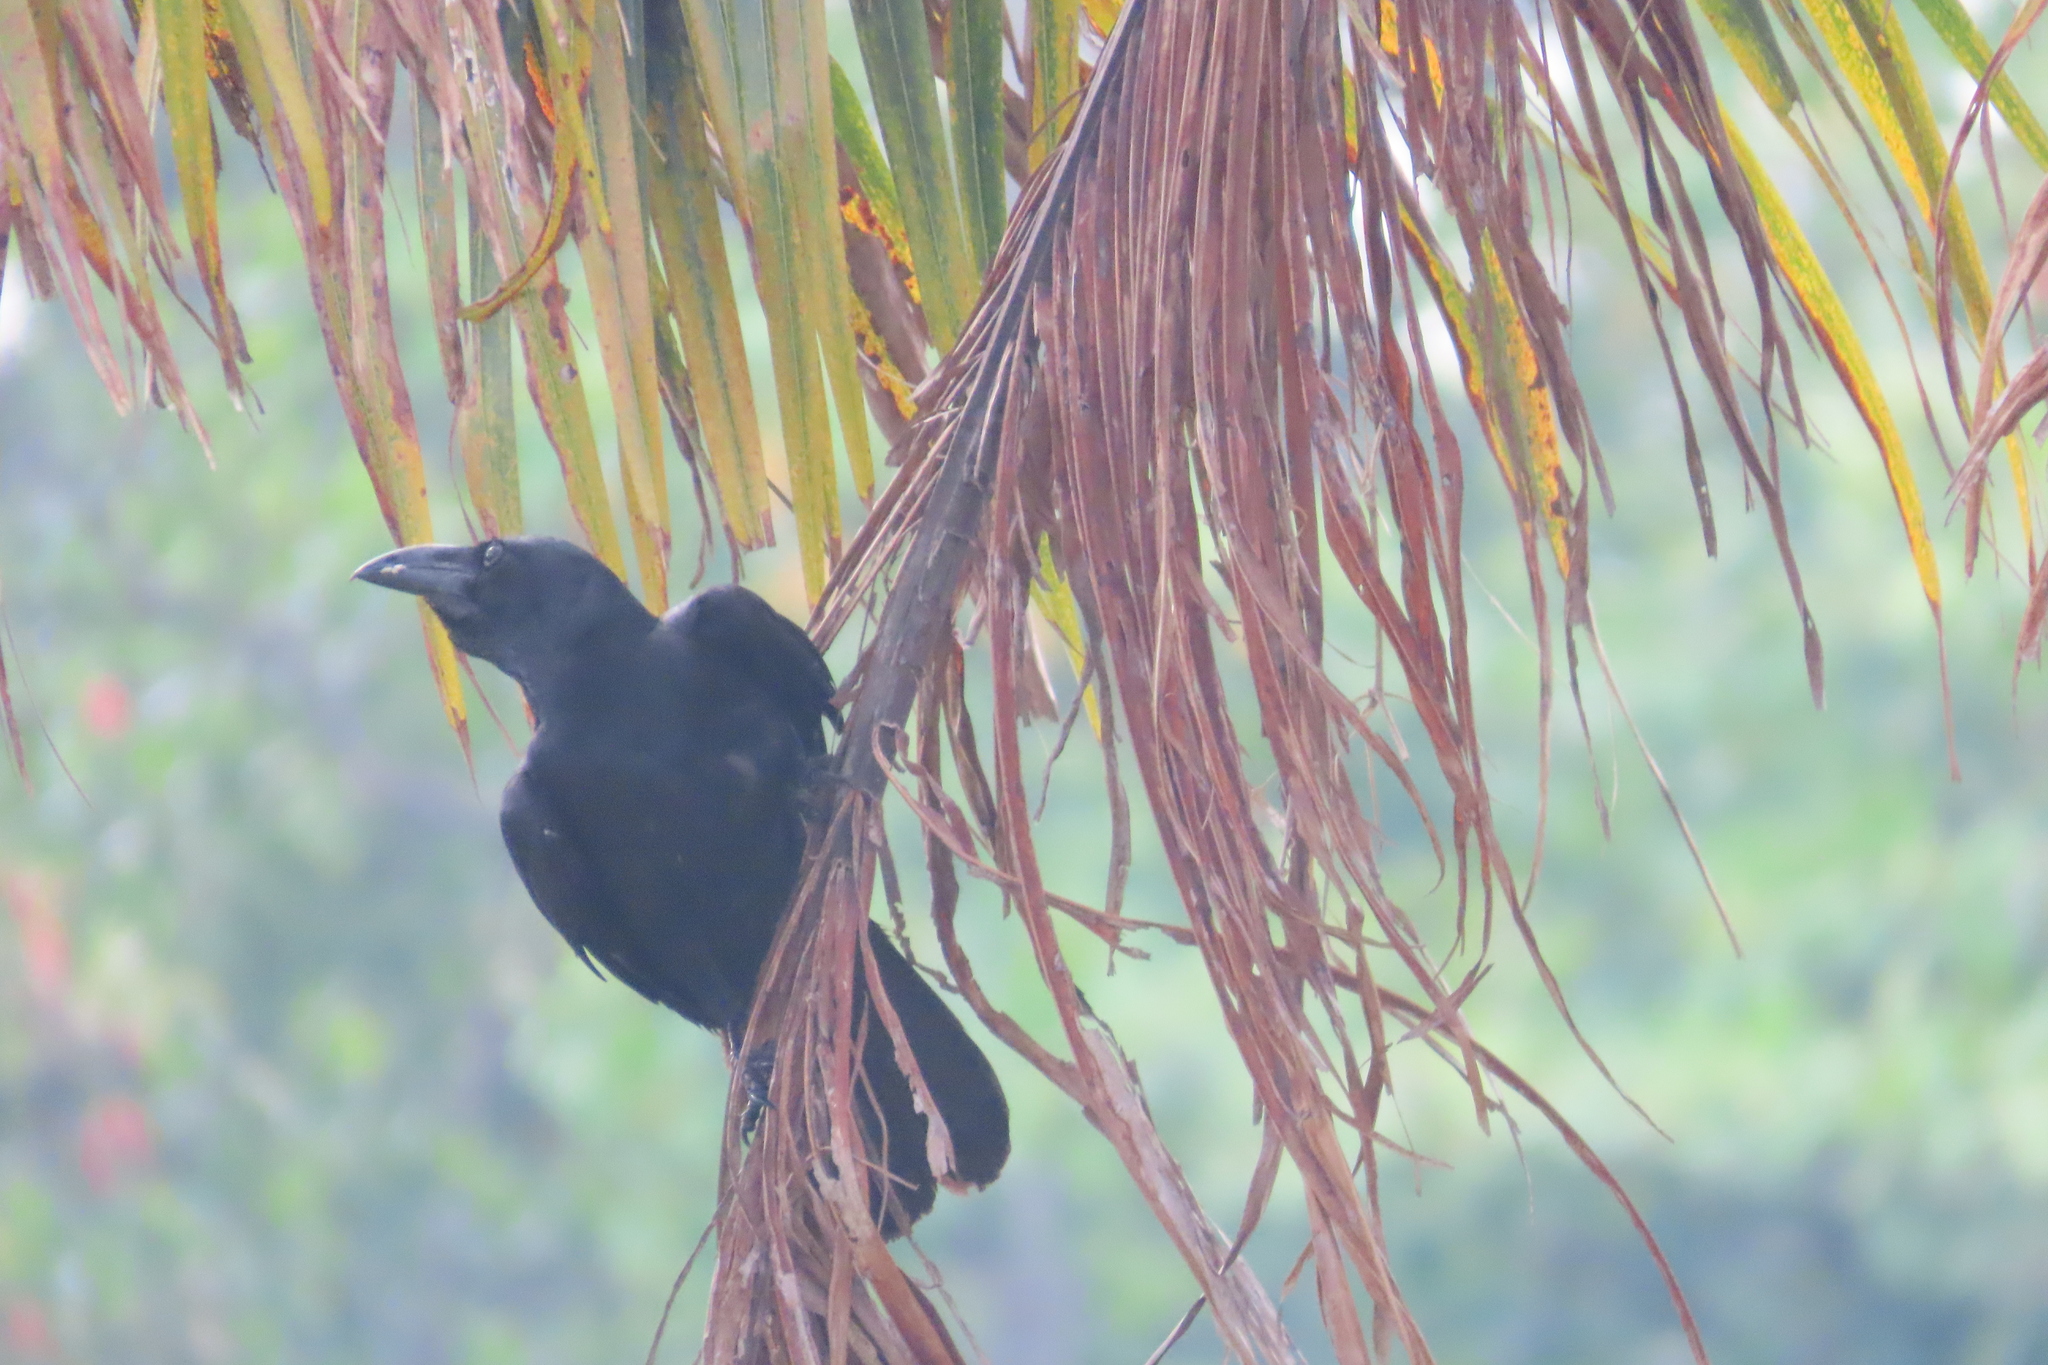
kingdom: Animalia
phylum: Chordata
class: Aves
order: Passeriformes
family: Corvidae
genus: Corvus
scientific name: Corvus macrorhynchos
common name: Large-billed crow
